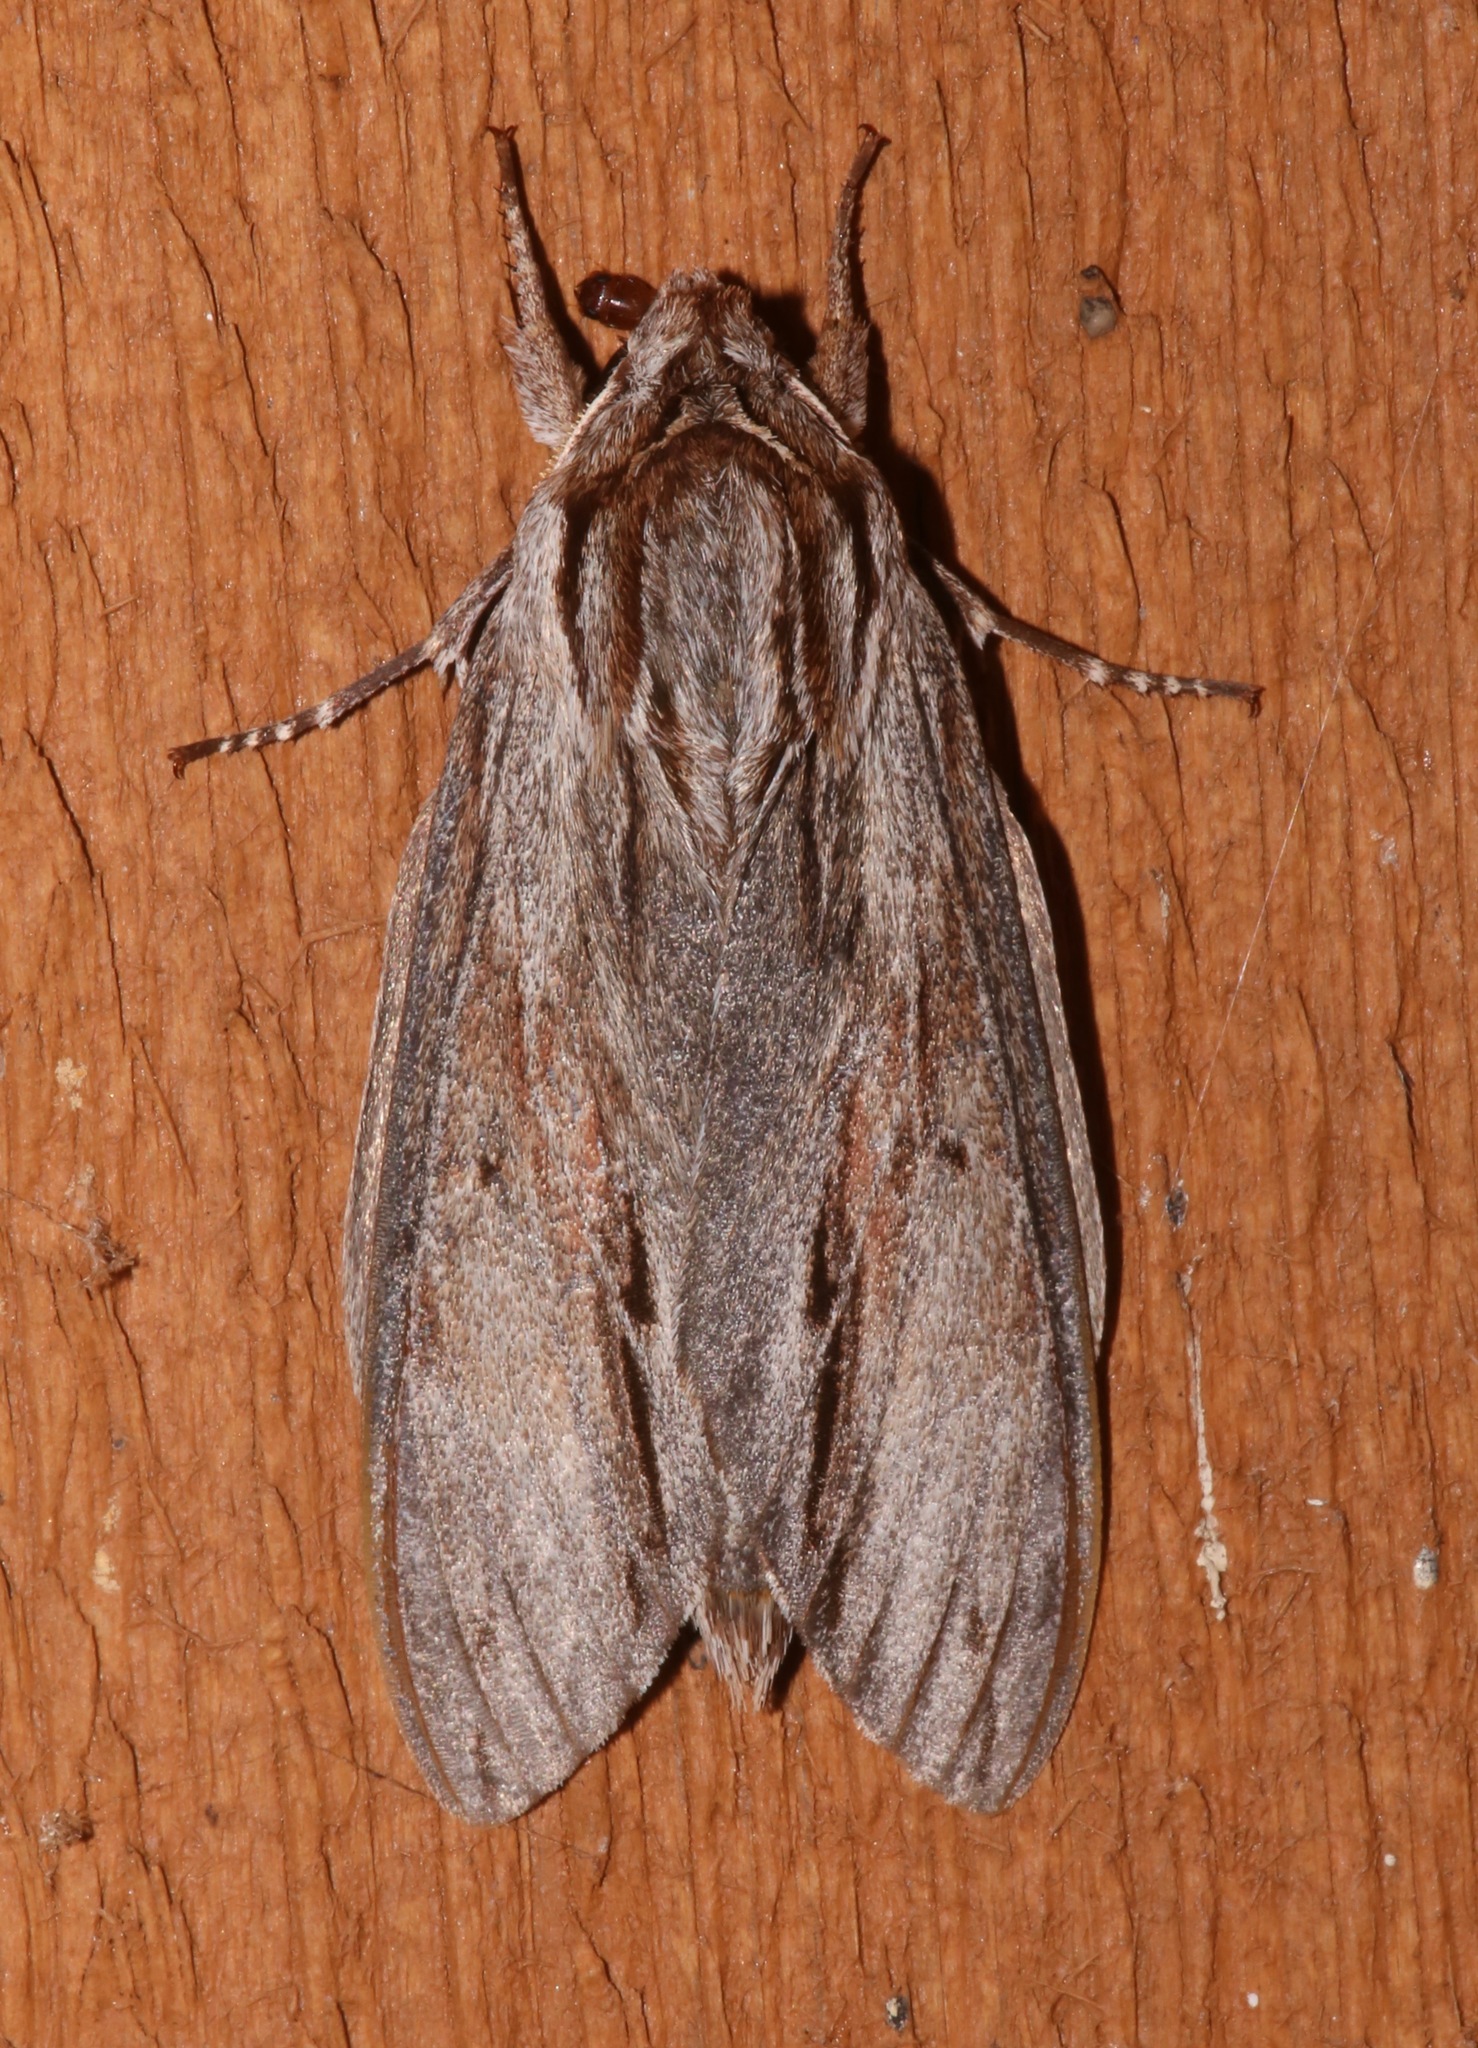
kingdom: Animalia
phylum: Arthropoda
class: Insecta
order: Lepidoptera
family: Sphingidae
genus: Isoparce
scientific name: Isoparce cupressi
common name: Cypress sphinx
